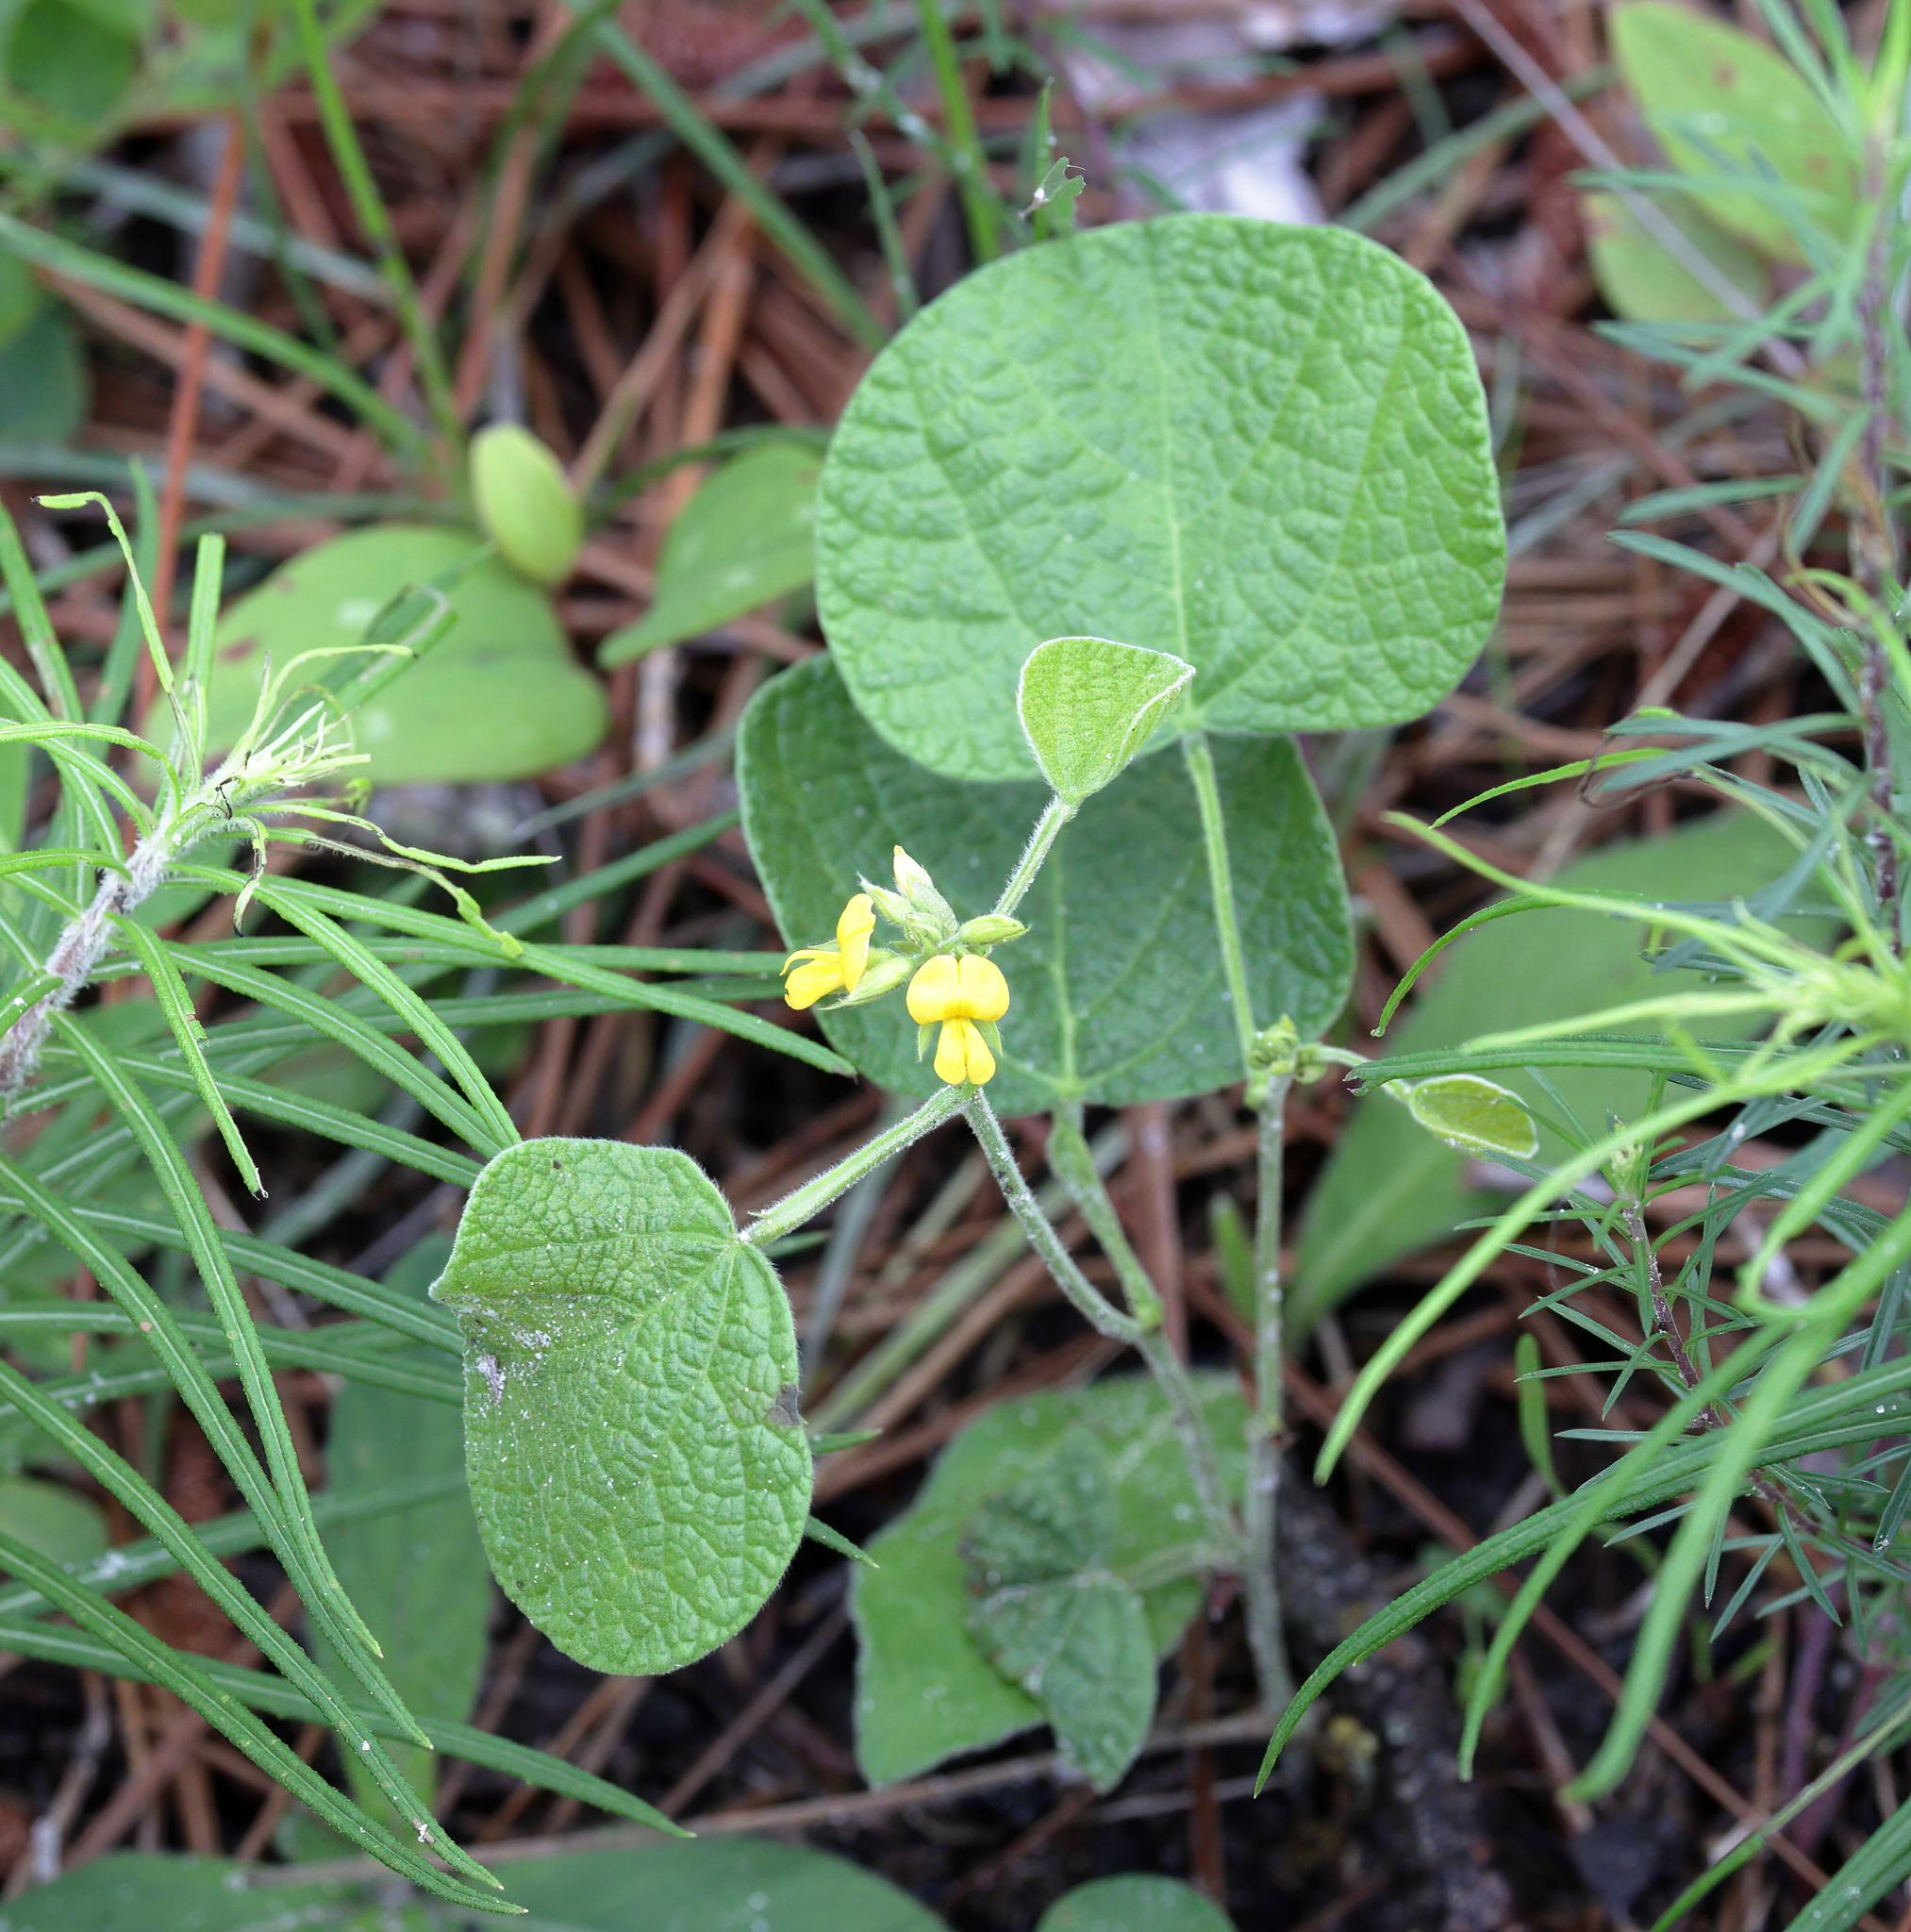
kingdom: Plantae
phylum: Tracheophyta
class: Magnoliopsida
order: Fabales
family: Fabaceae
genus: Rhynchosia
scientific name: Rhynchosia reniformis
